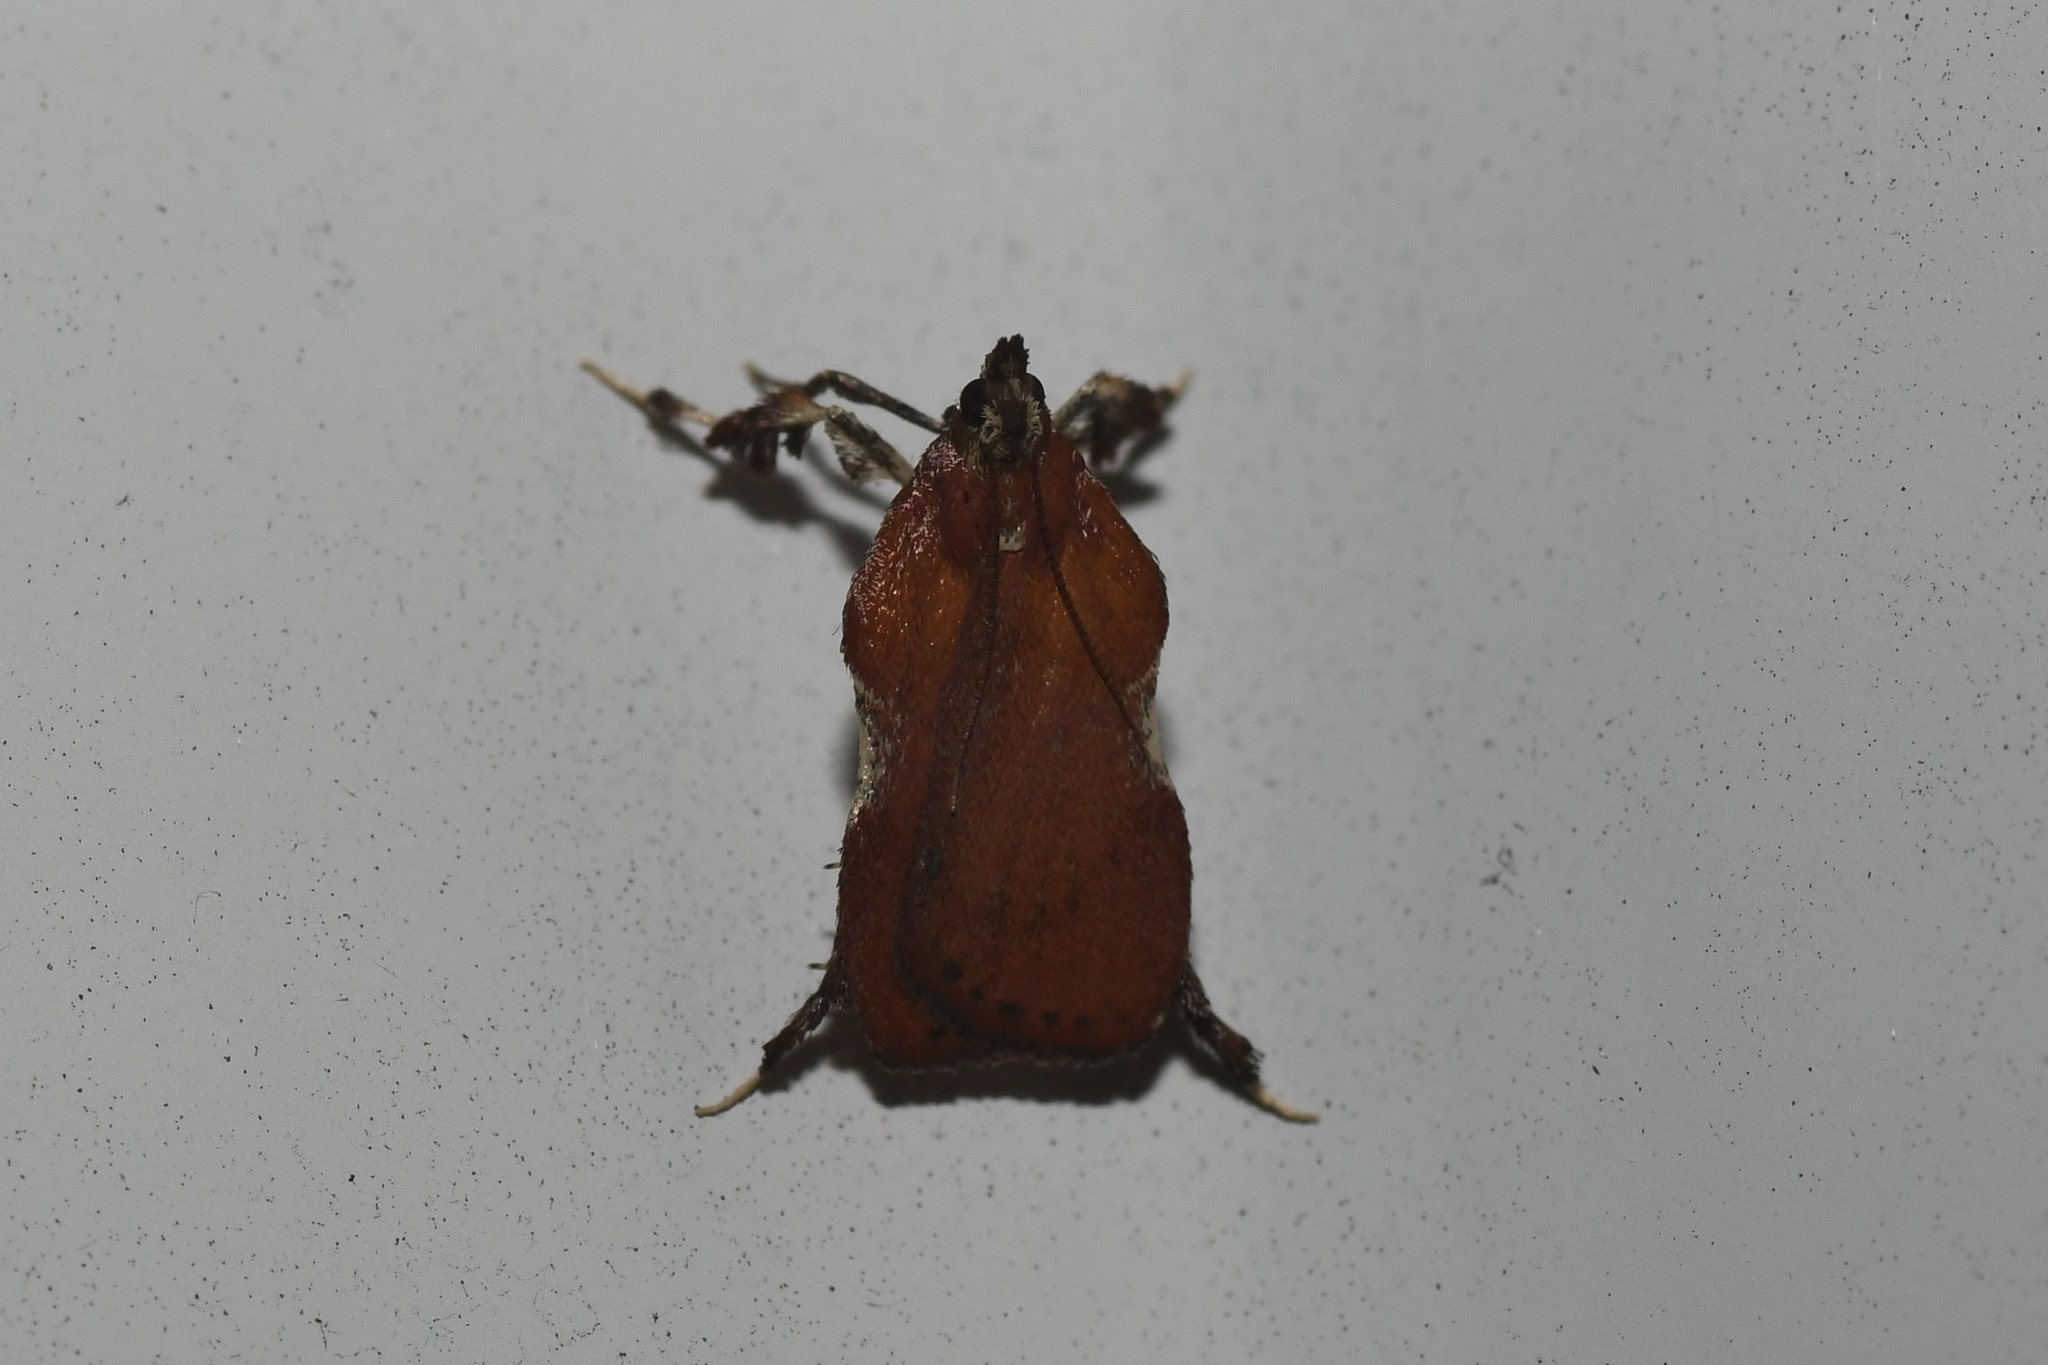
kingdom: Animalia
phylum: Arthropoda
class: Insecta
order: Lepidoptera
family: Pyralidae
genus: Galasa
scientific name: Galasa nigrinodis
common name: Boxwood leaftier moth
